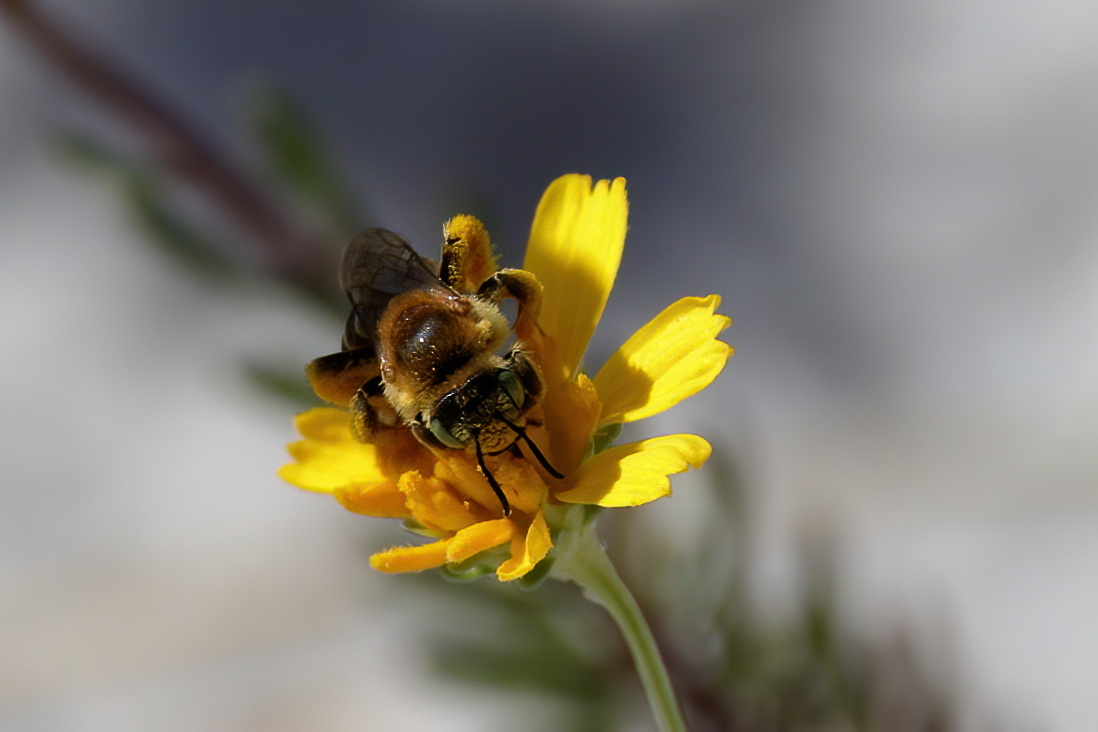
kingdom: Animalia
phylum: Arthropoda
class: Insecta
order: Hymenoptera
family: Melittidae
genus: Hesperapis
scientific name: Hesperapis oraria
